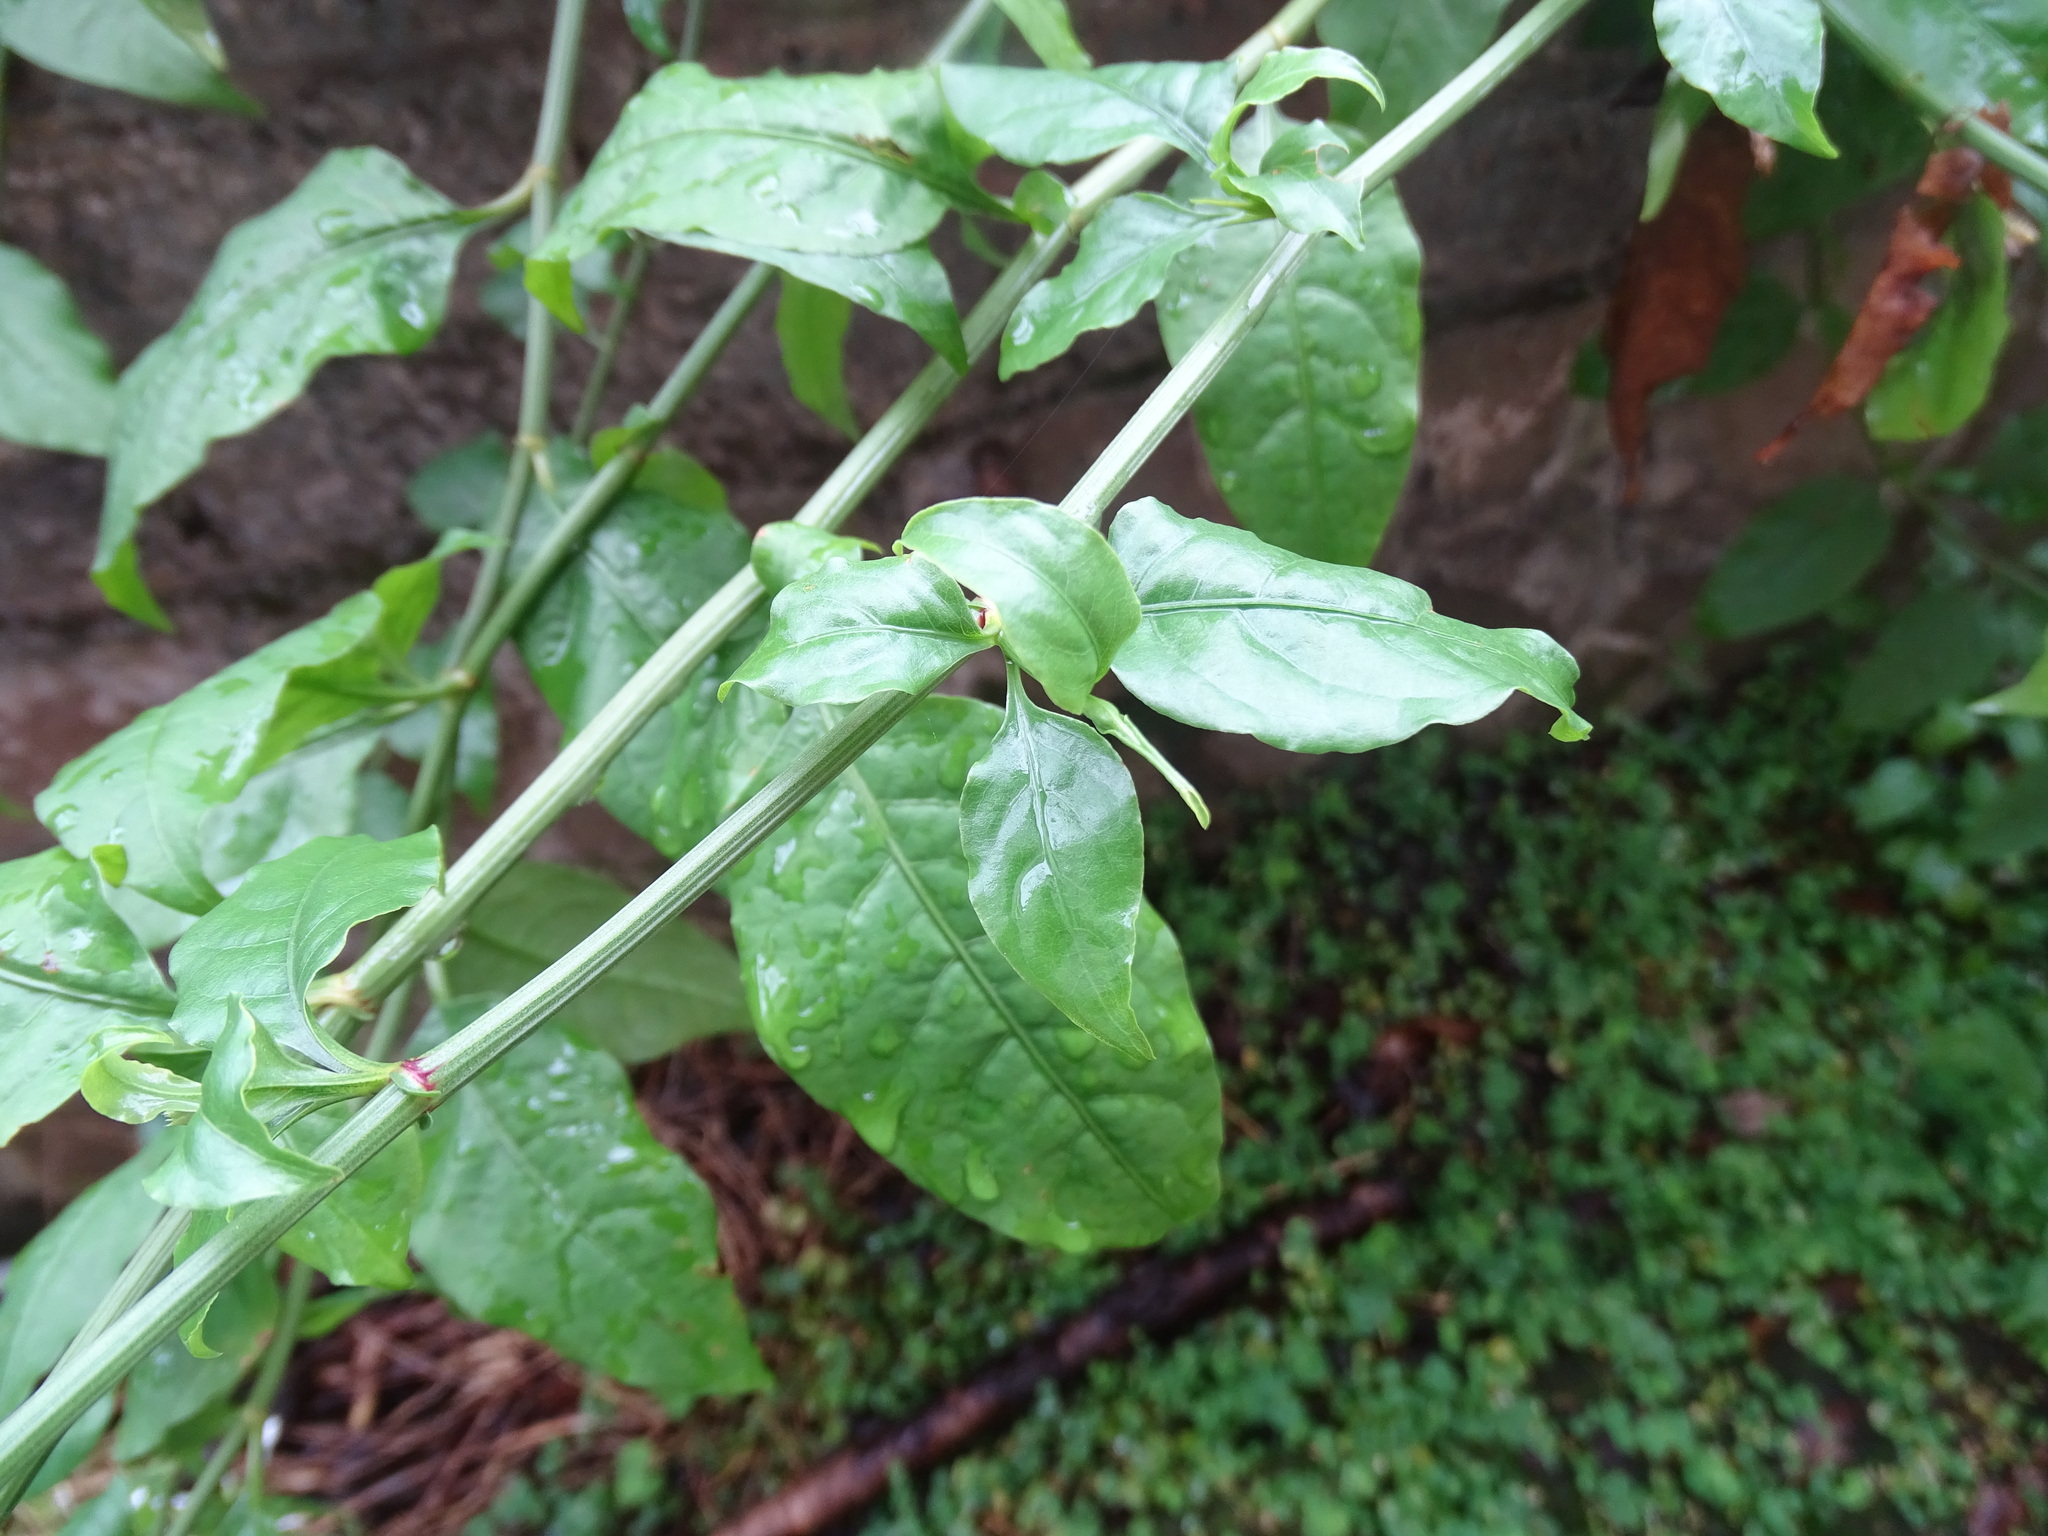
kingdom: Plantae
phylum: Tracheophyta
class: Magnoliopsida
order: Caryophyllales
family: Plumbaginaceae
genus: Plumbago
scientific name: Plumbago zeylanica
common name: Doctorbush
